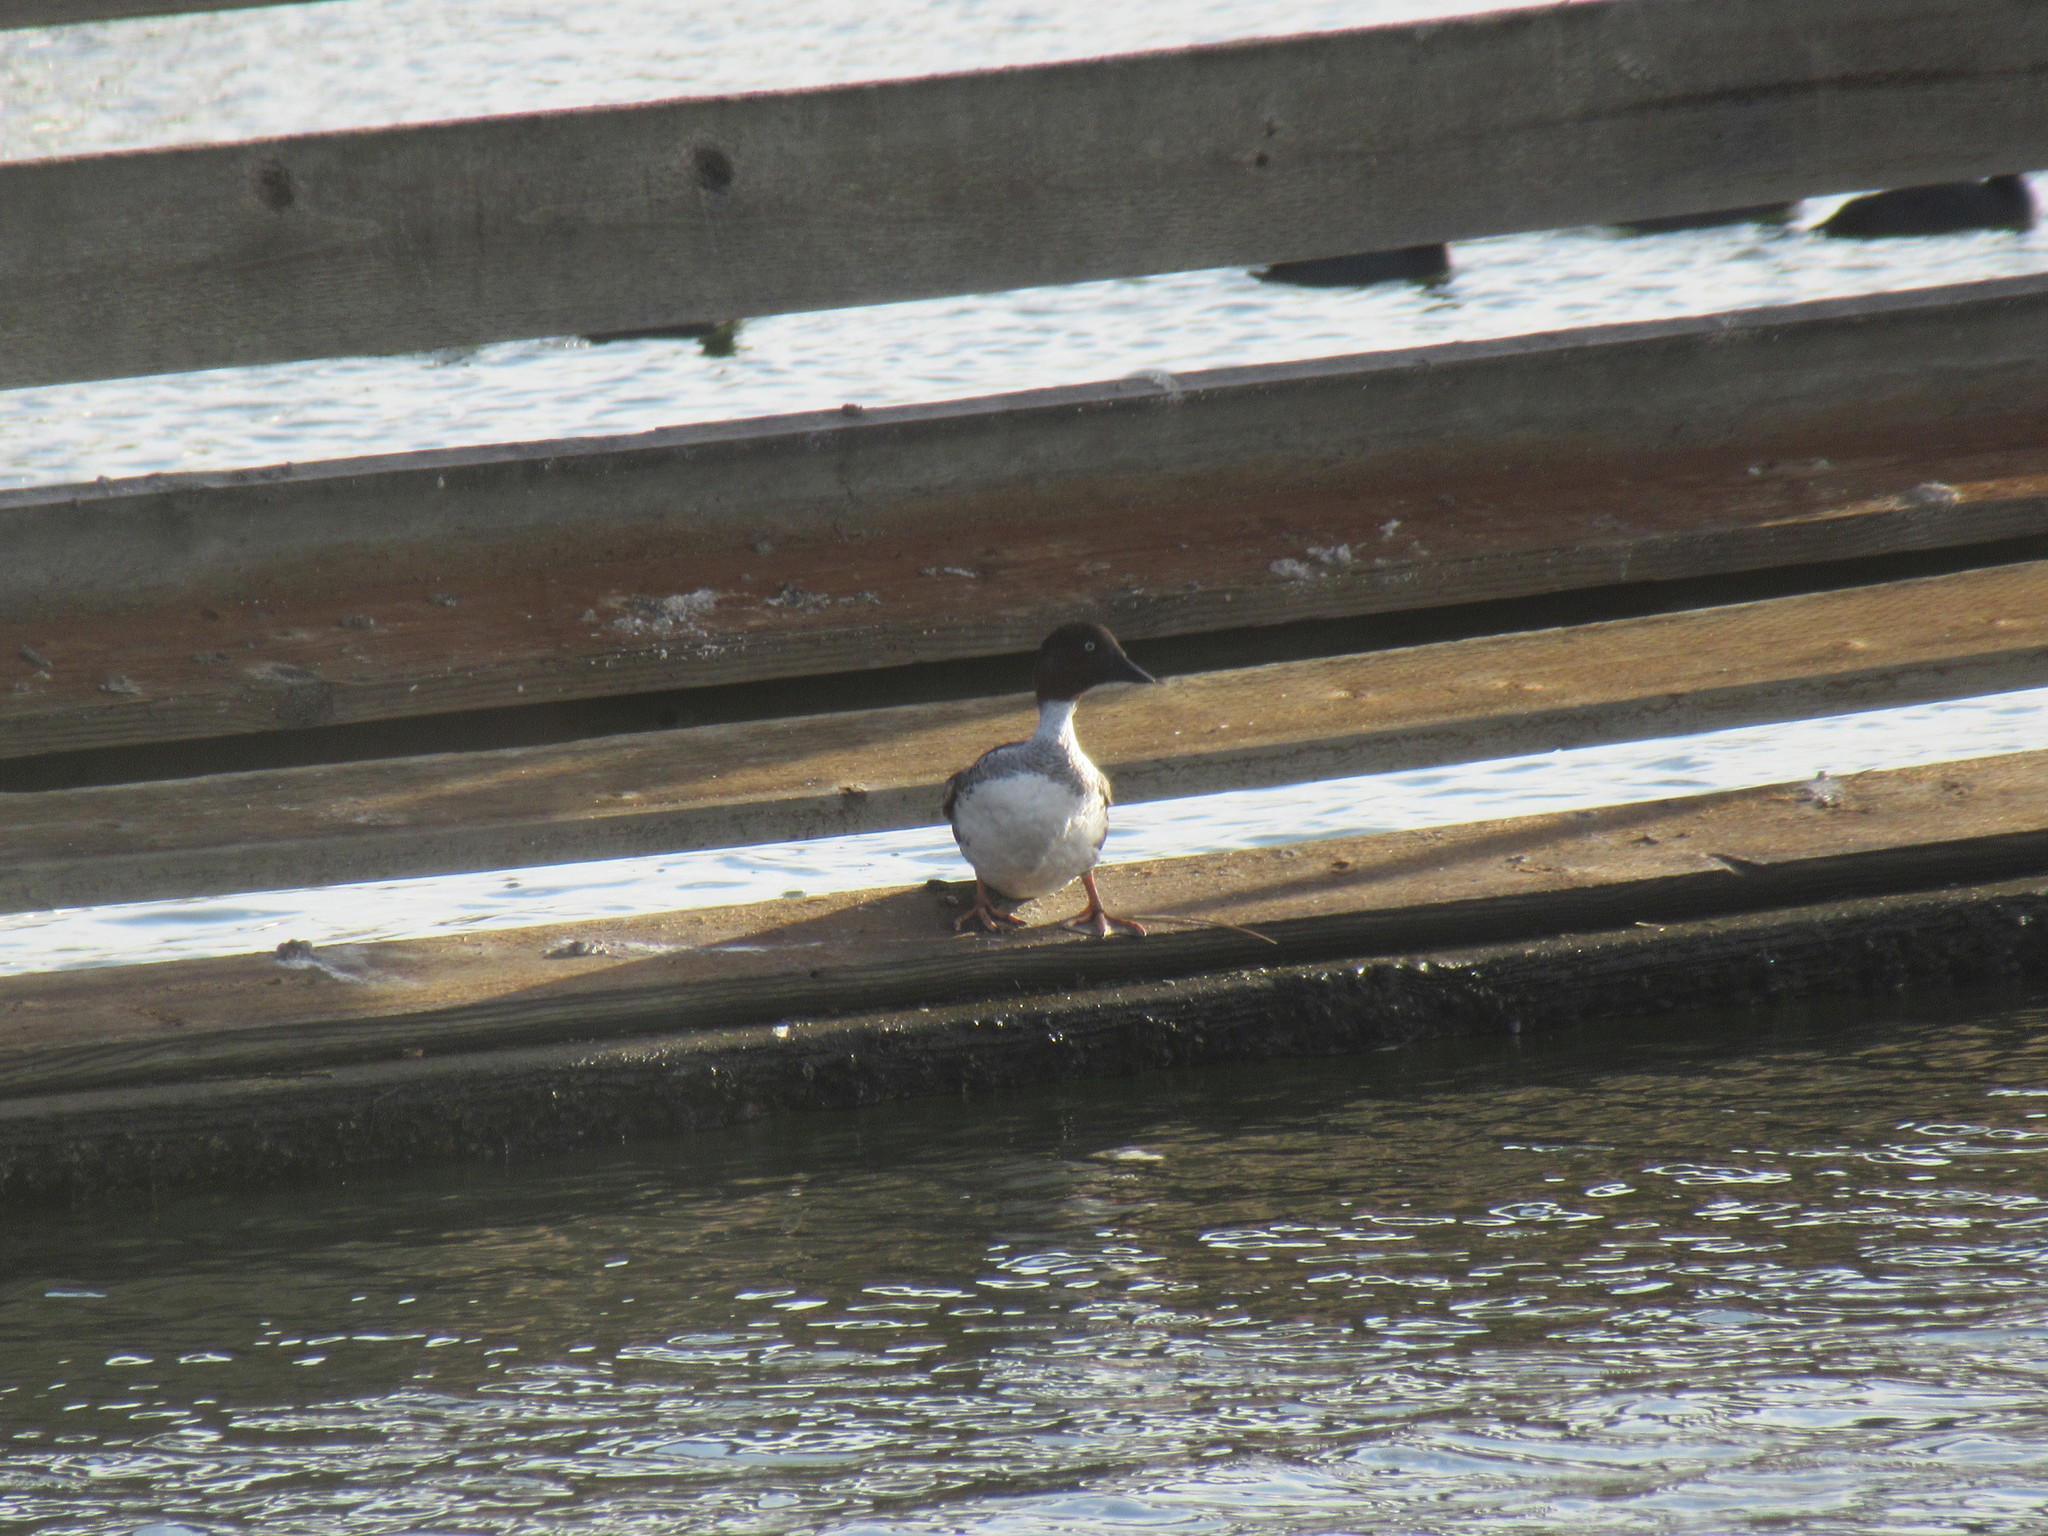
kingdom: Animalia
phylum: Chordata
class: Aves
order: Anseriformes
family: Anatidae
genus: Bucephala
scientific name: Bucephala clangula
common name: Common goldeneye
